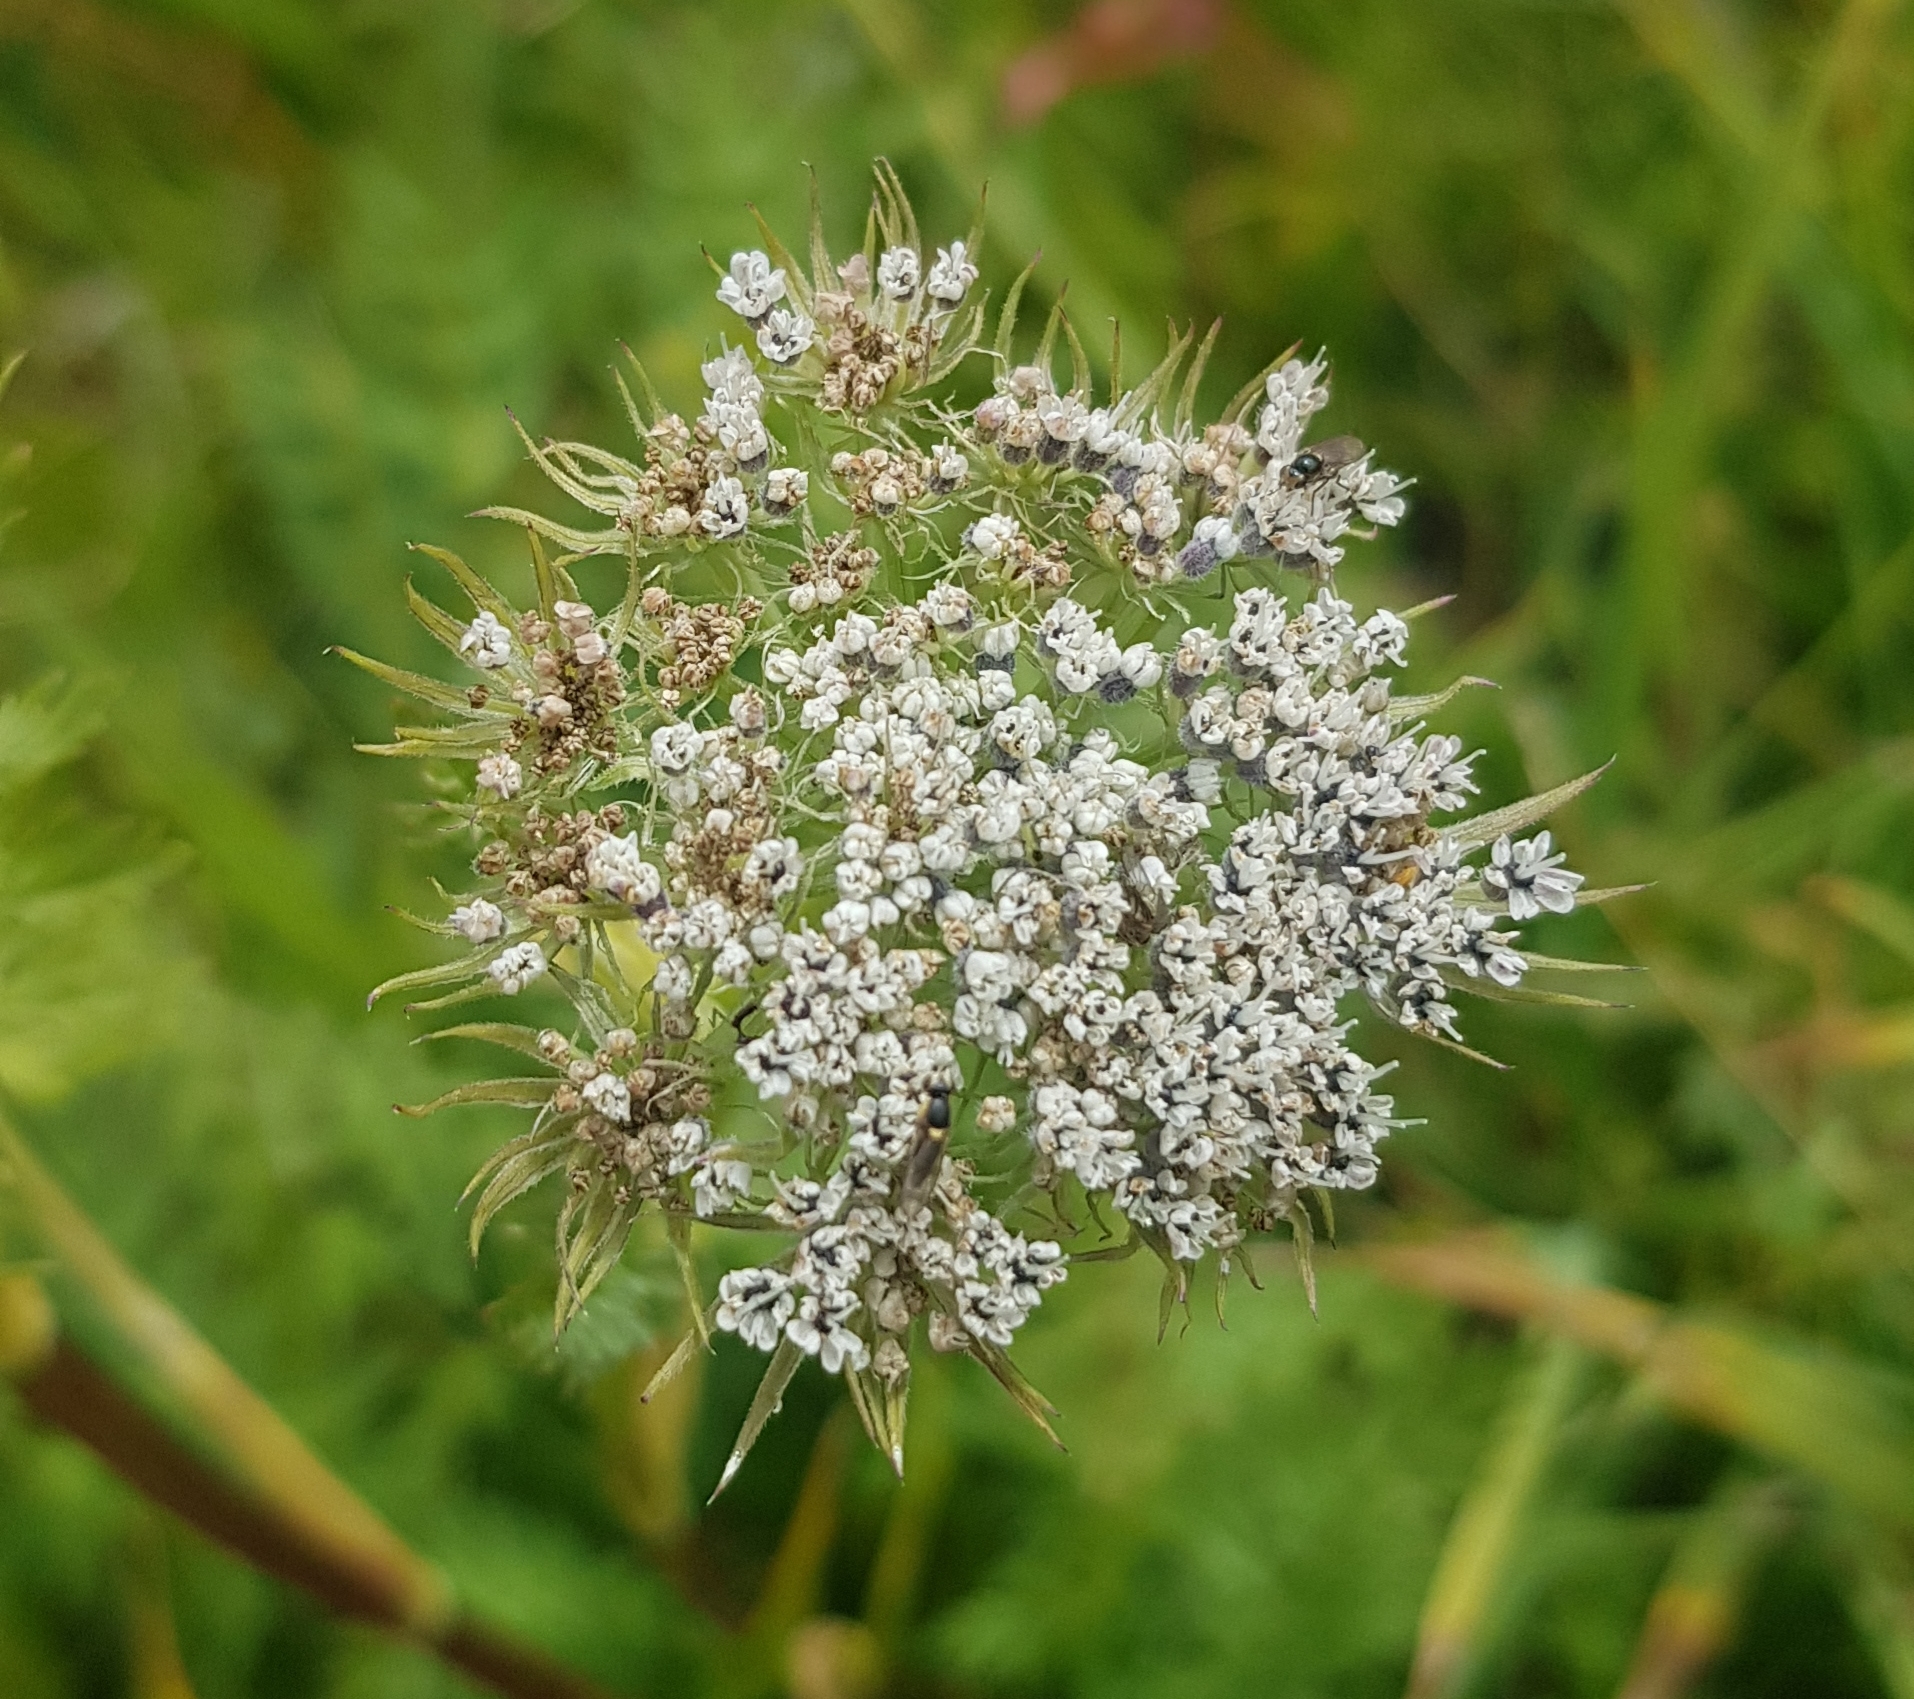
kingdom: Plantae
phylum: Tracheophyta
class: Magnoliopsida
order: Apiales
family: Apiaceae
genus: Seseli
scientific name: Seseli condensatum
